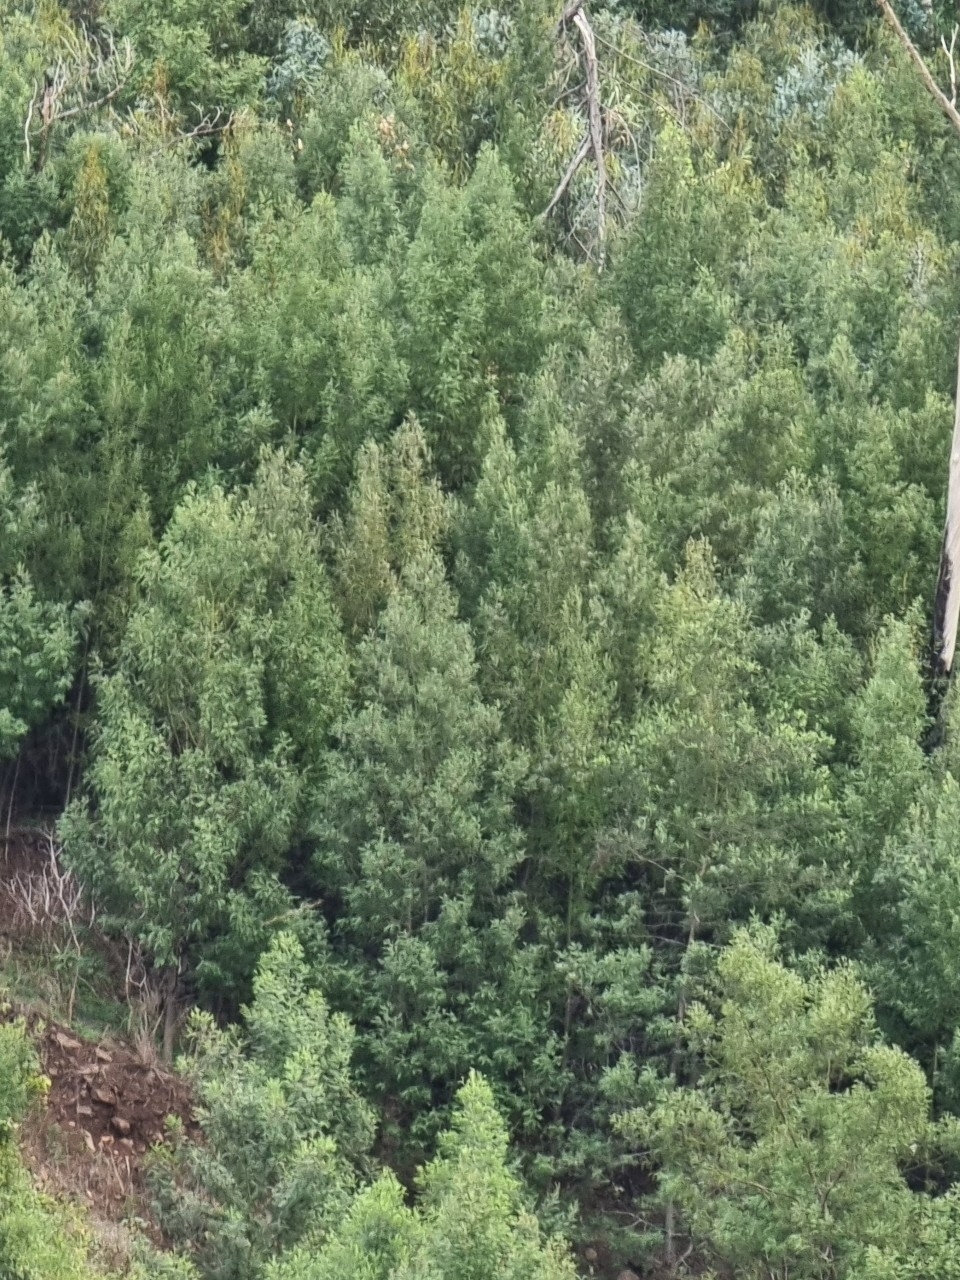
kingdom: Plantae
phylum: Tracheophyta
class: Magnoliopsida
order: Fabales
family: Fabaceae
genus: Acacia
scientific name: Acacia mearnsii
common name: Black wattle
